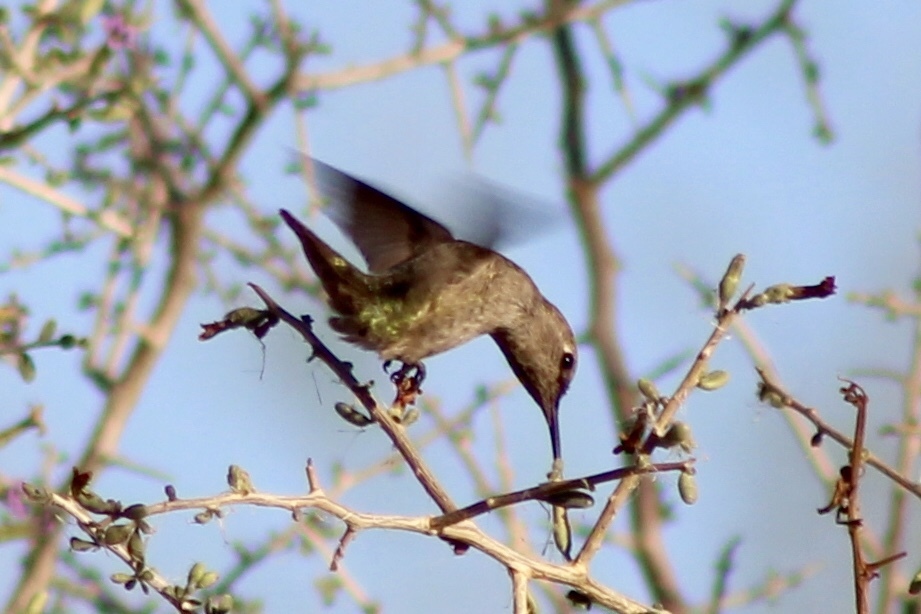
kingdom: Animalia
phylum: Chordata
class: Aves
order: Apodiformes
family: Trochilidae
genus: Calypte
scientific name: Calypte anna
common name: Anna's hummingbird
